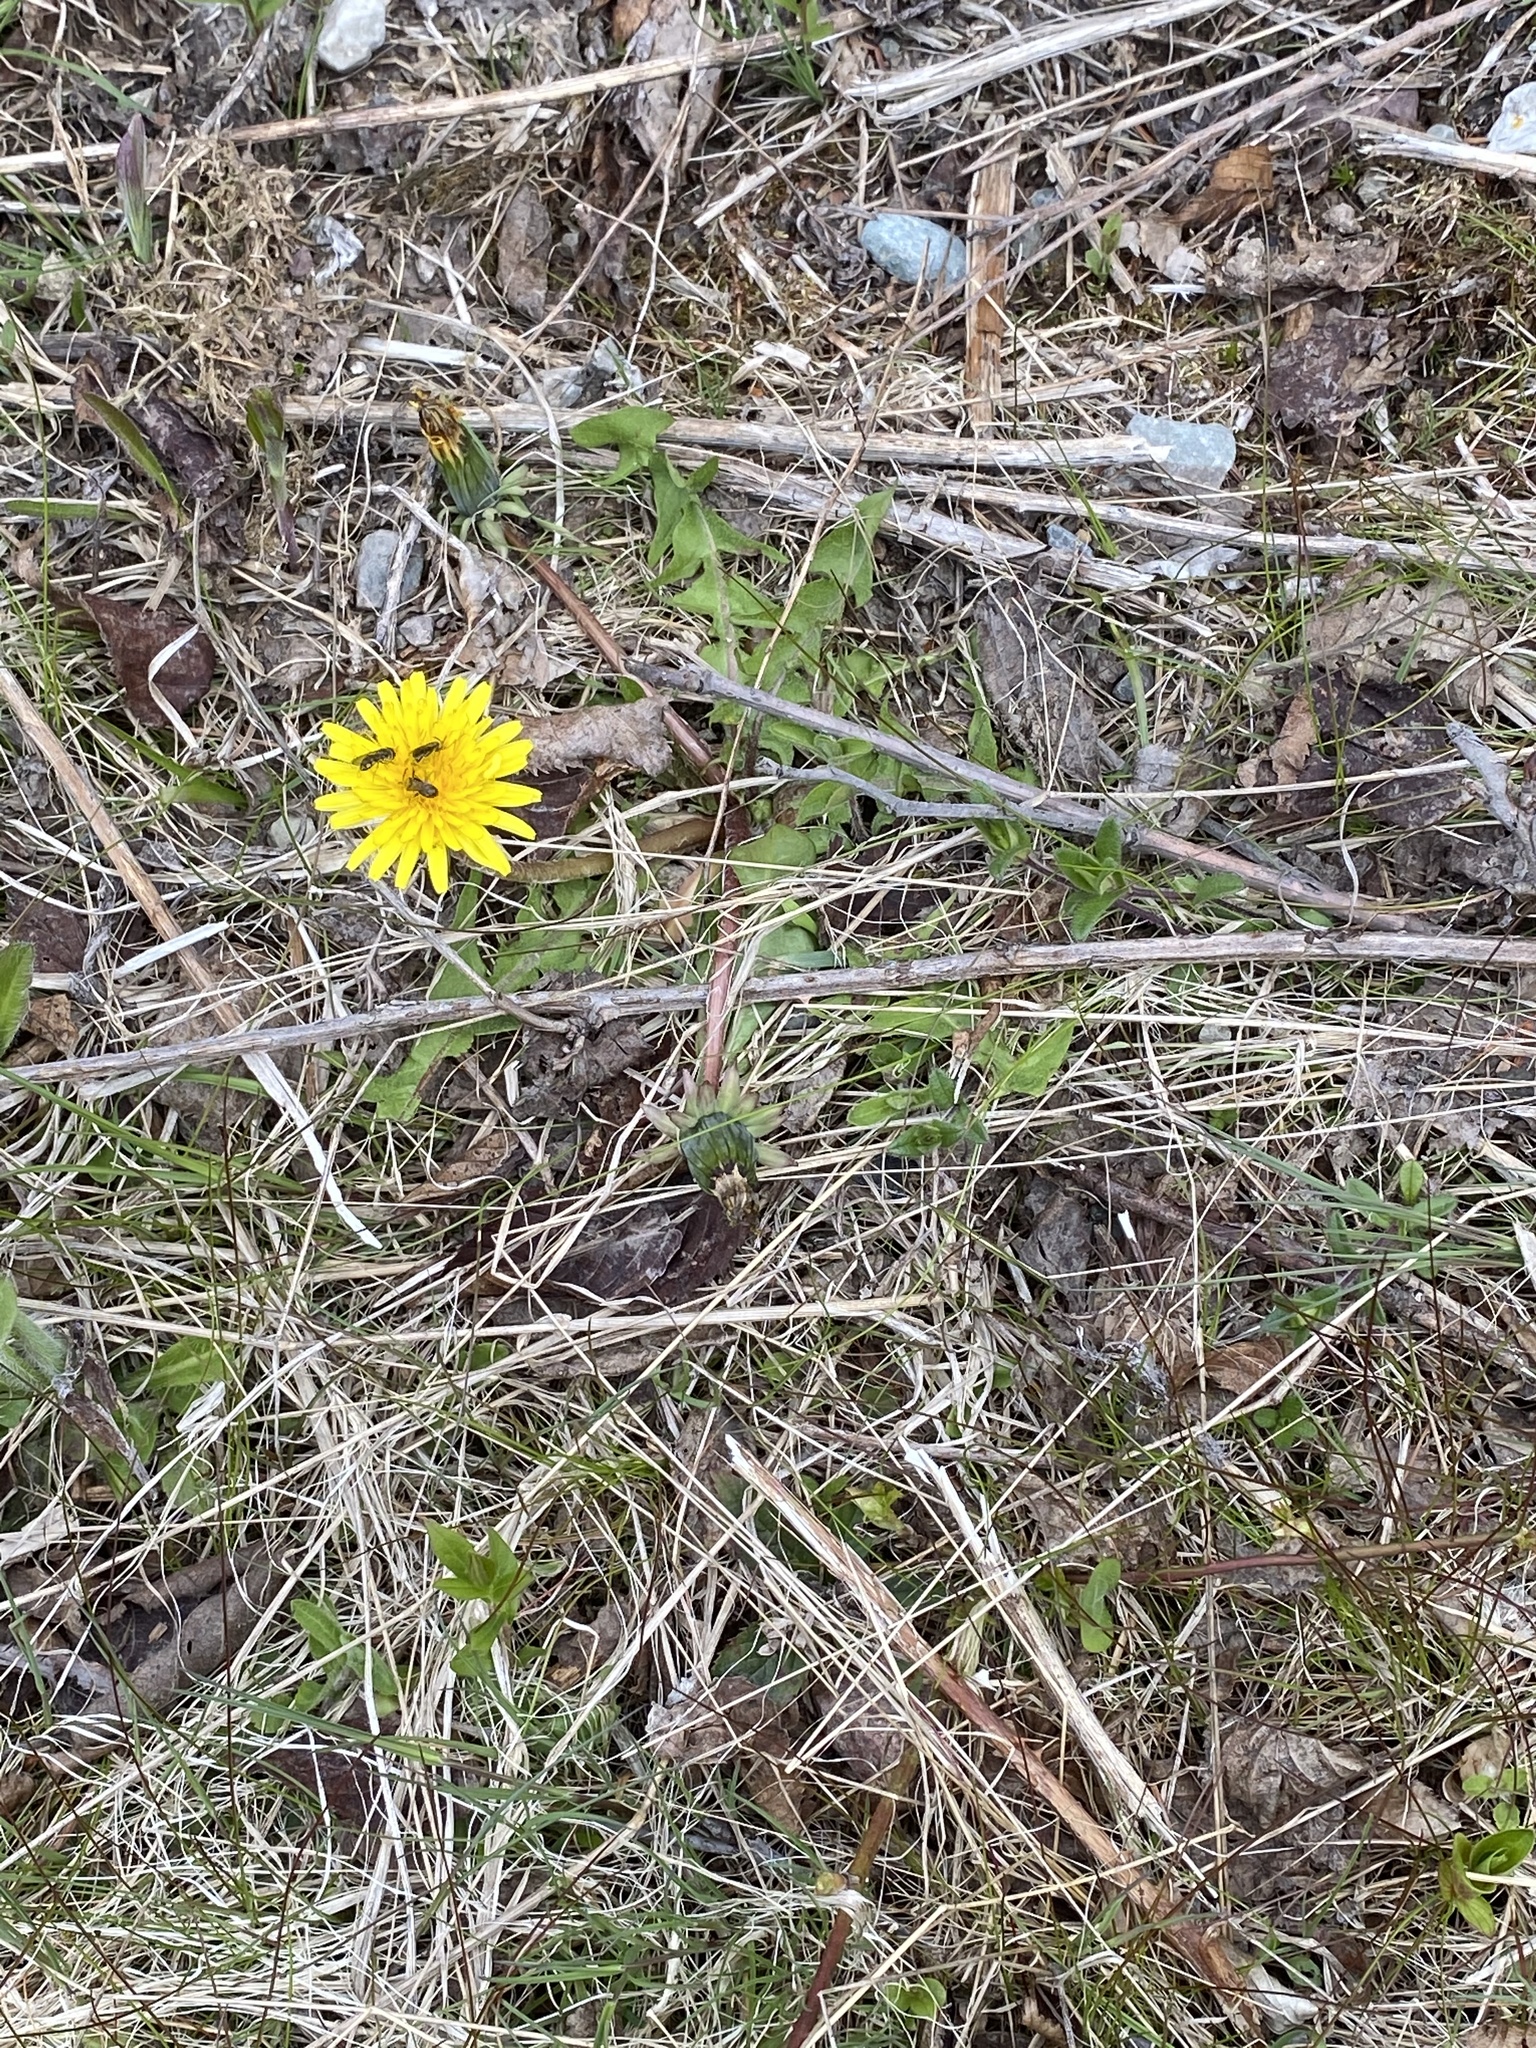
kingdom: Plantae
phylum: Tracheophyta
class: Magnoliopsida
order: Asterales
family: Asteraceae
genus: Taraxacum
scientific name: Taraxacum officinale
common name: Common dandelion
